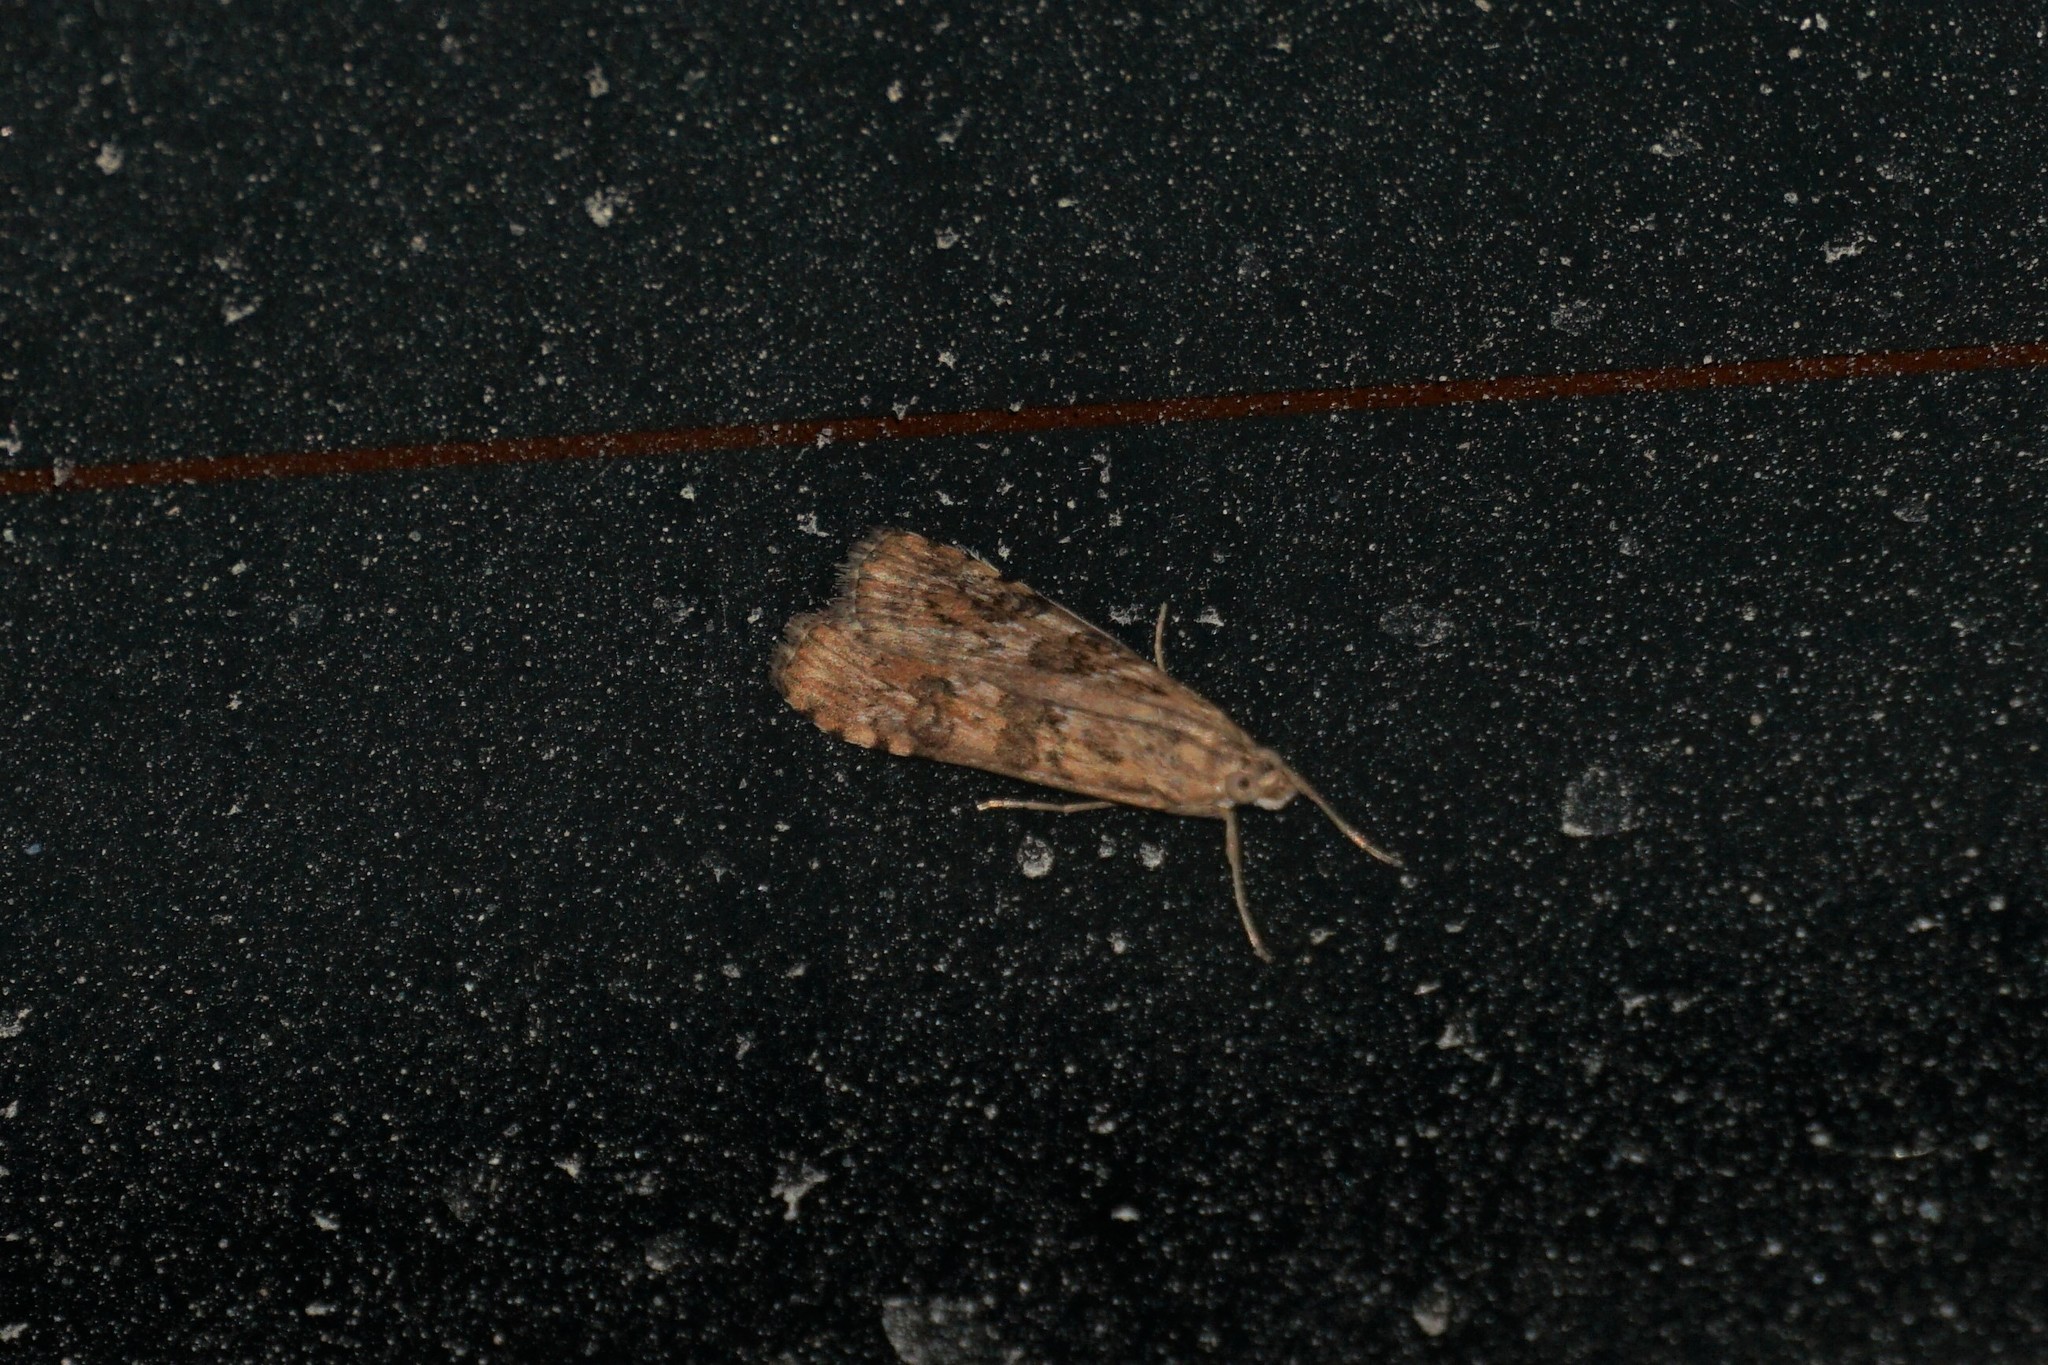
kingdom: Animalia
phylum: Arthropoda
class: Insecta
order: Lepidoptera
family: Crambidae
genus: Nomophila
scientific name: Nomophila noctuella
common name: Rush veneer
